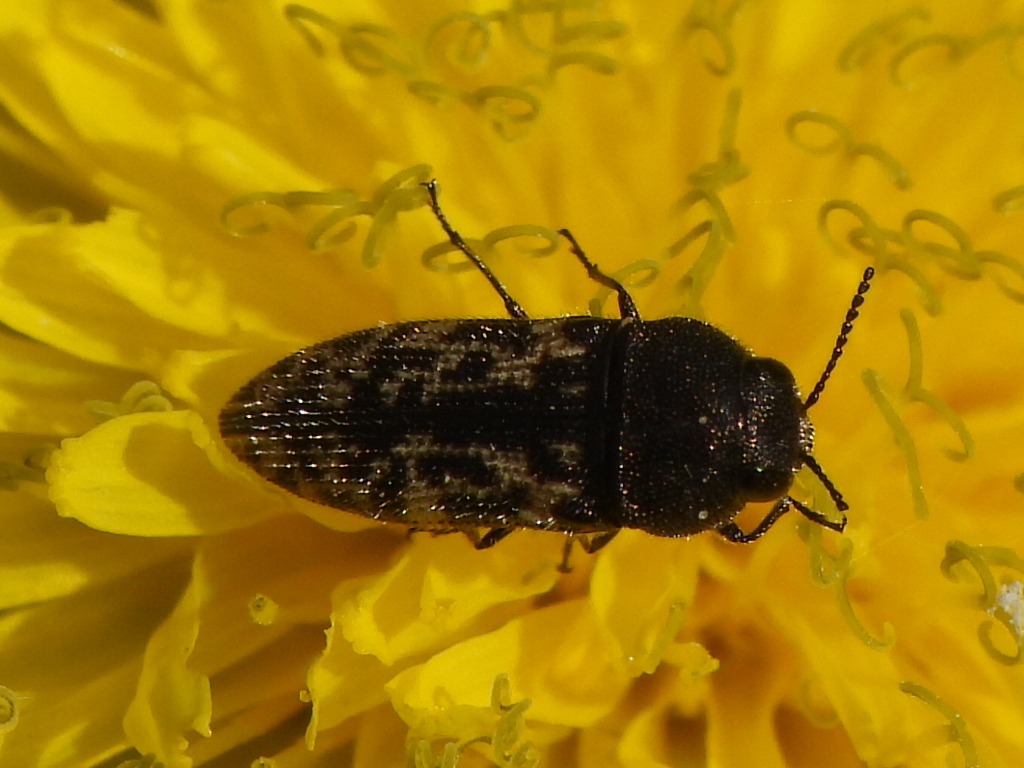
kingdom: Animalia
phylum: Arthropoda
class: Insecta
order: Coleoptera
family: Buprestidae
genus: Acmaeodera
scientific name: Acmaeodera neglecta
